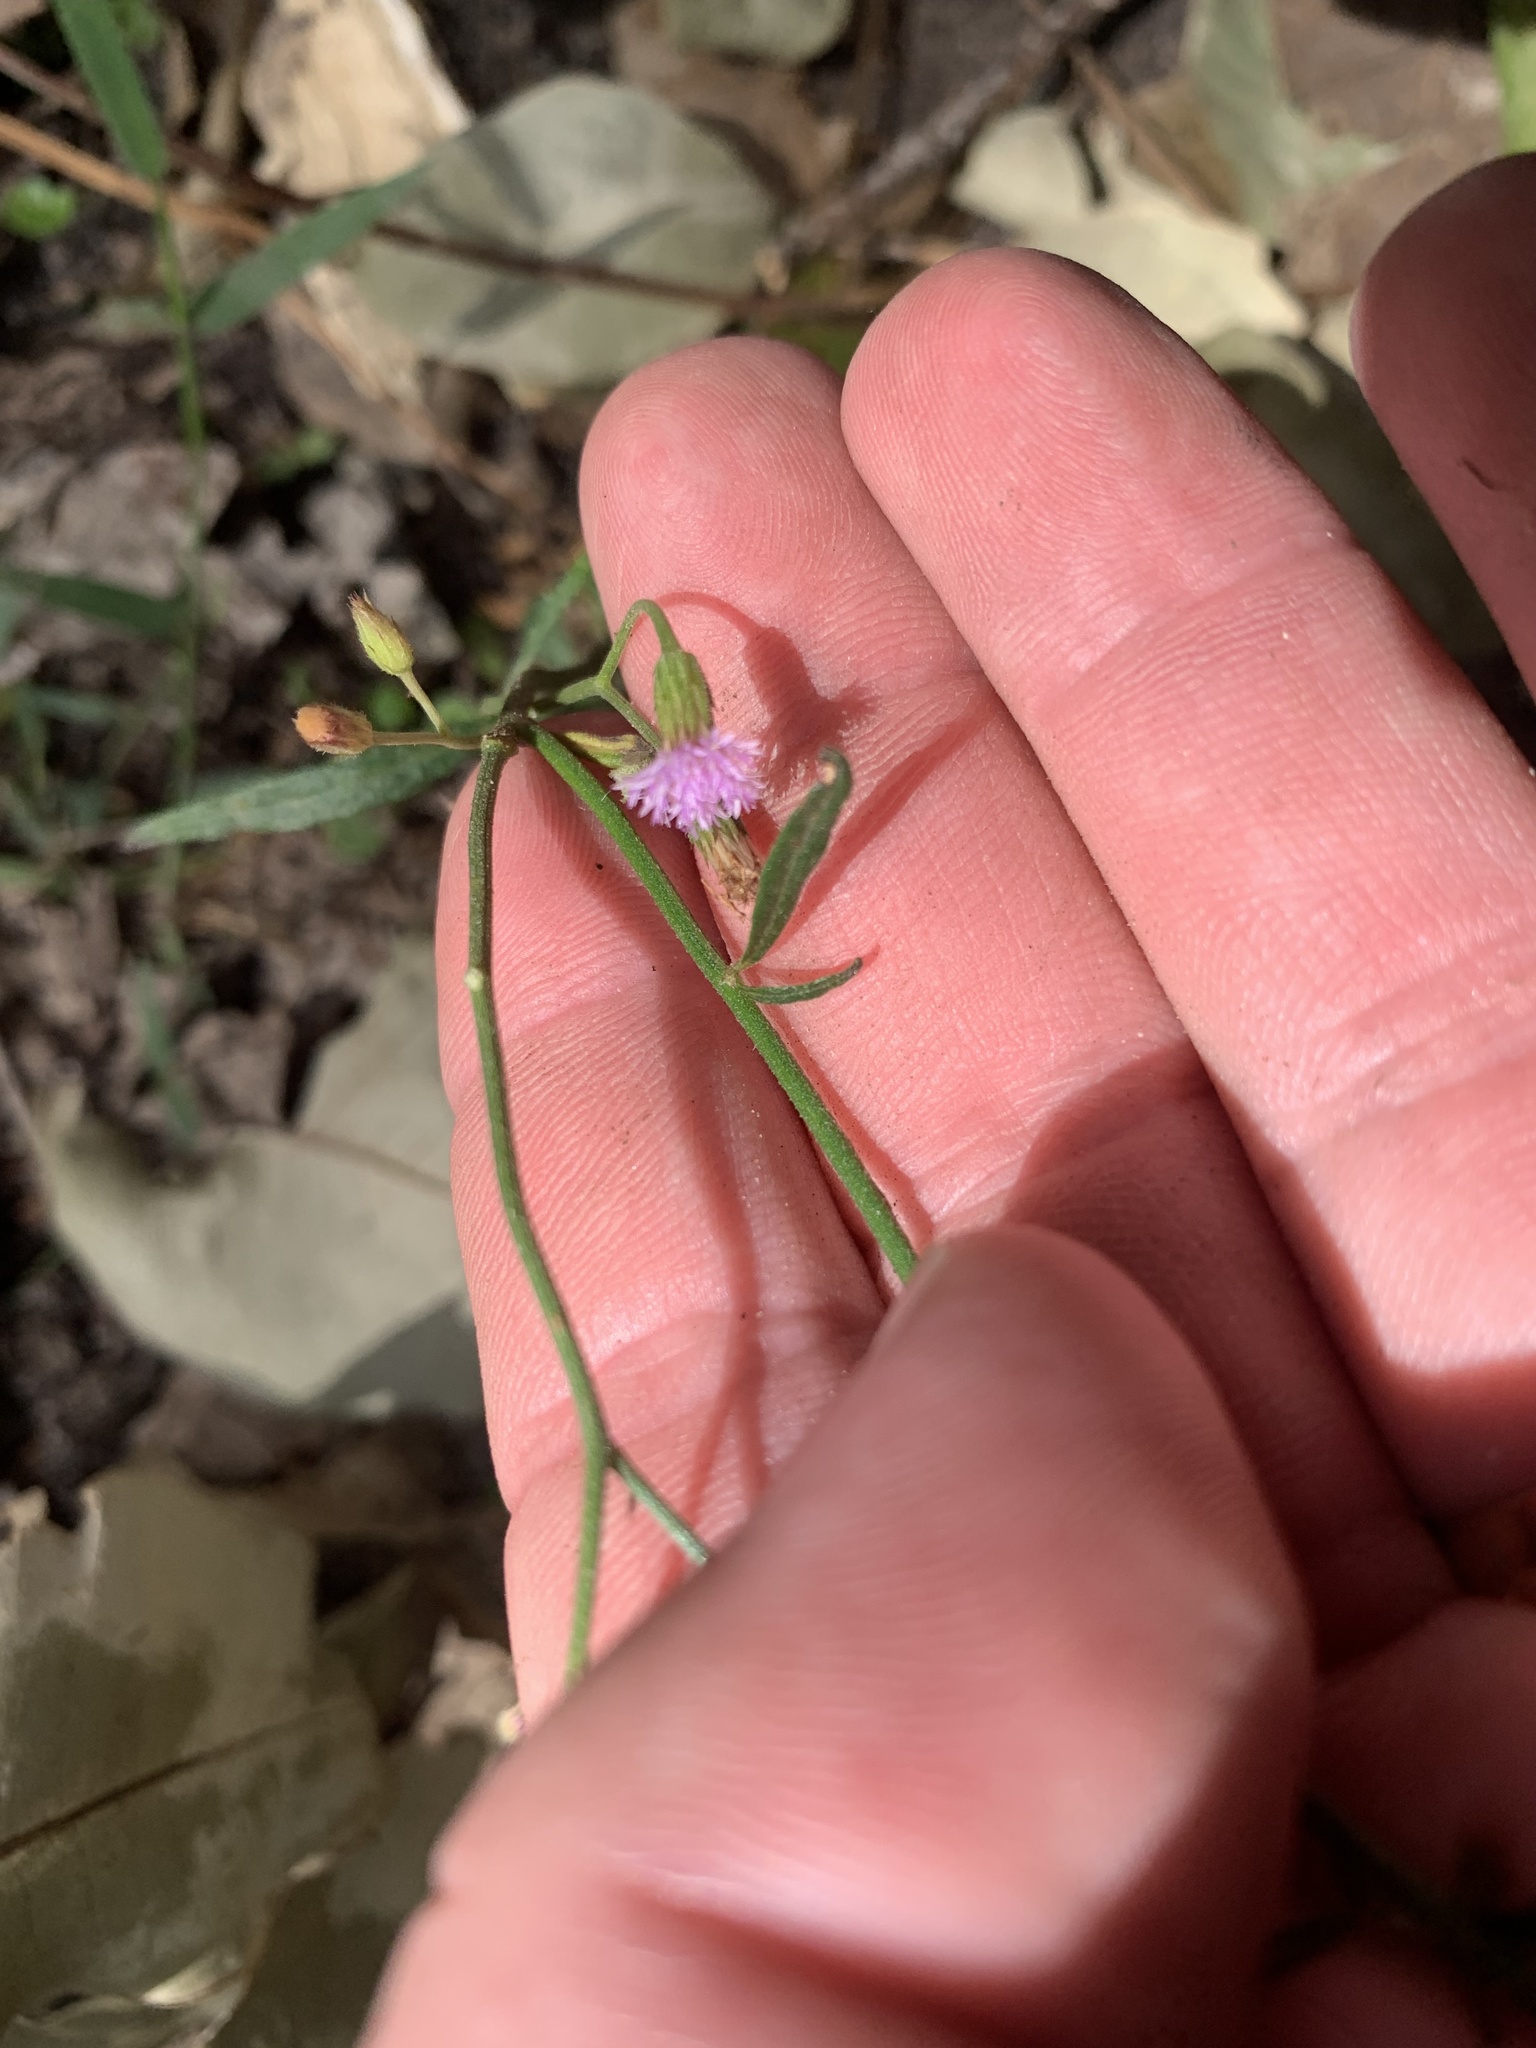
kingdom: Plantae
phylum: Tracheophyta
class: Magnoliopsida
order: Asterales
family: Asteraceae
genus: Cyanthillium
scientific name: Cyanthillium cinereum
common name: Little ironweed
